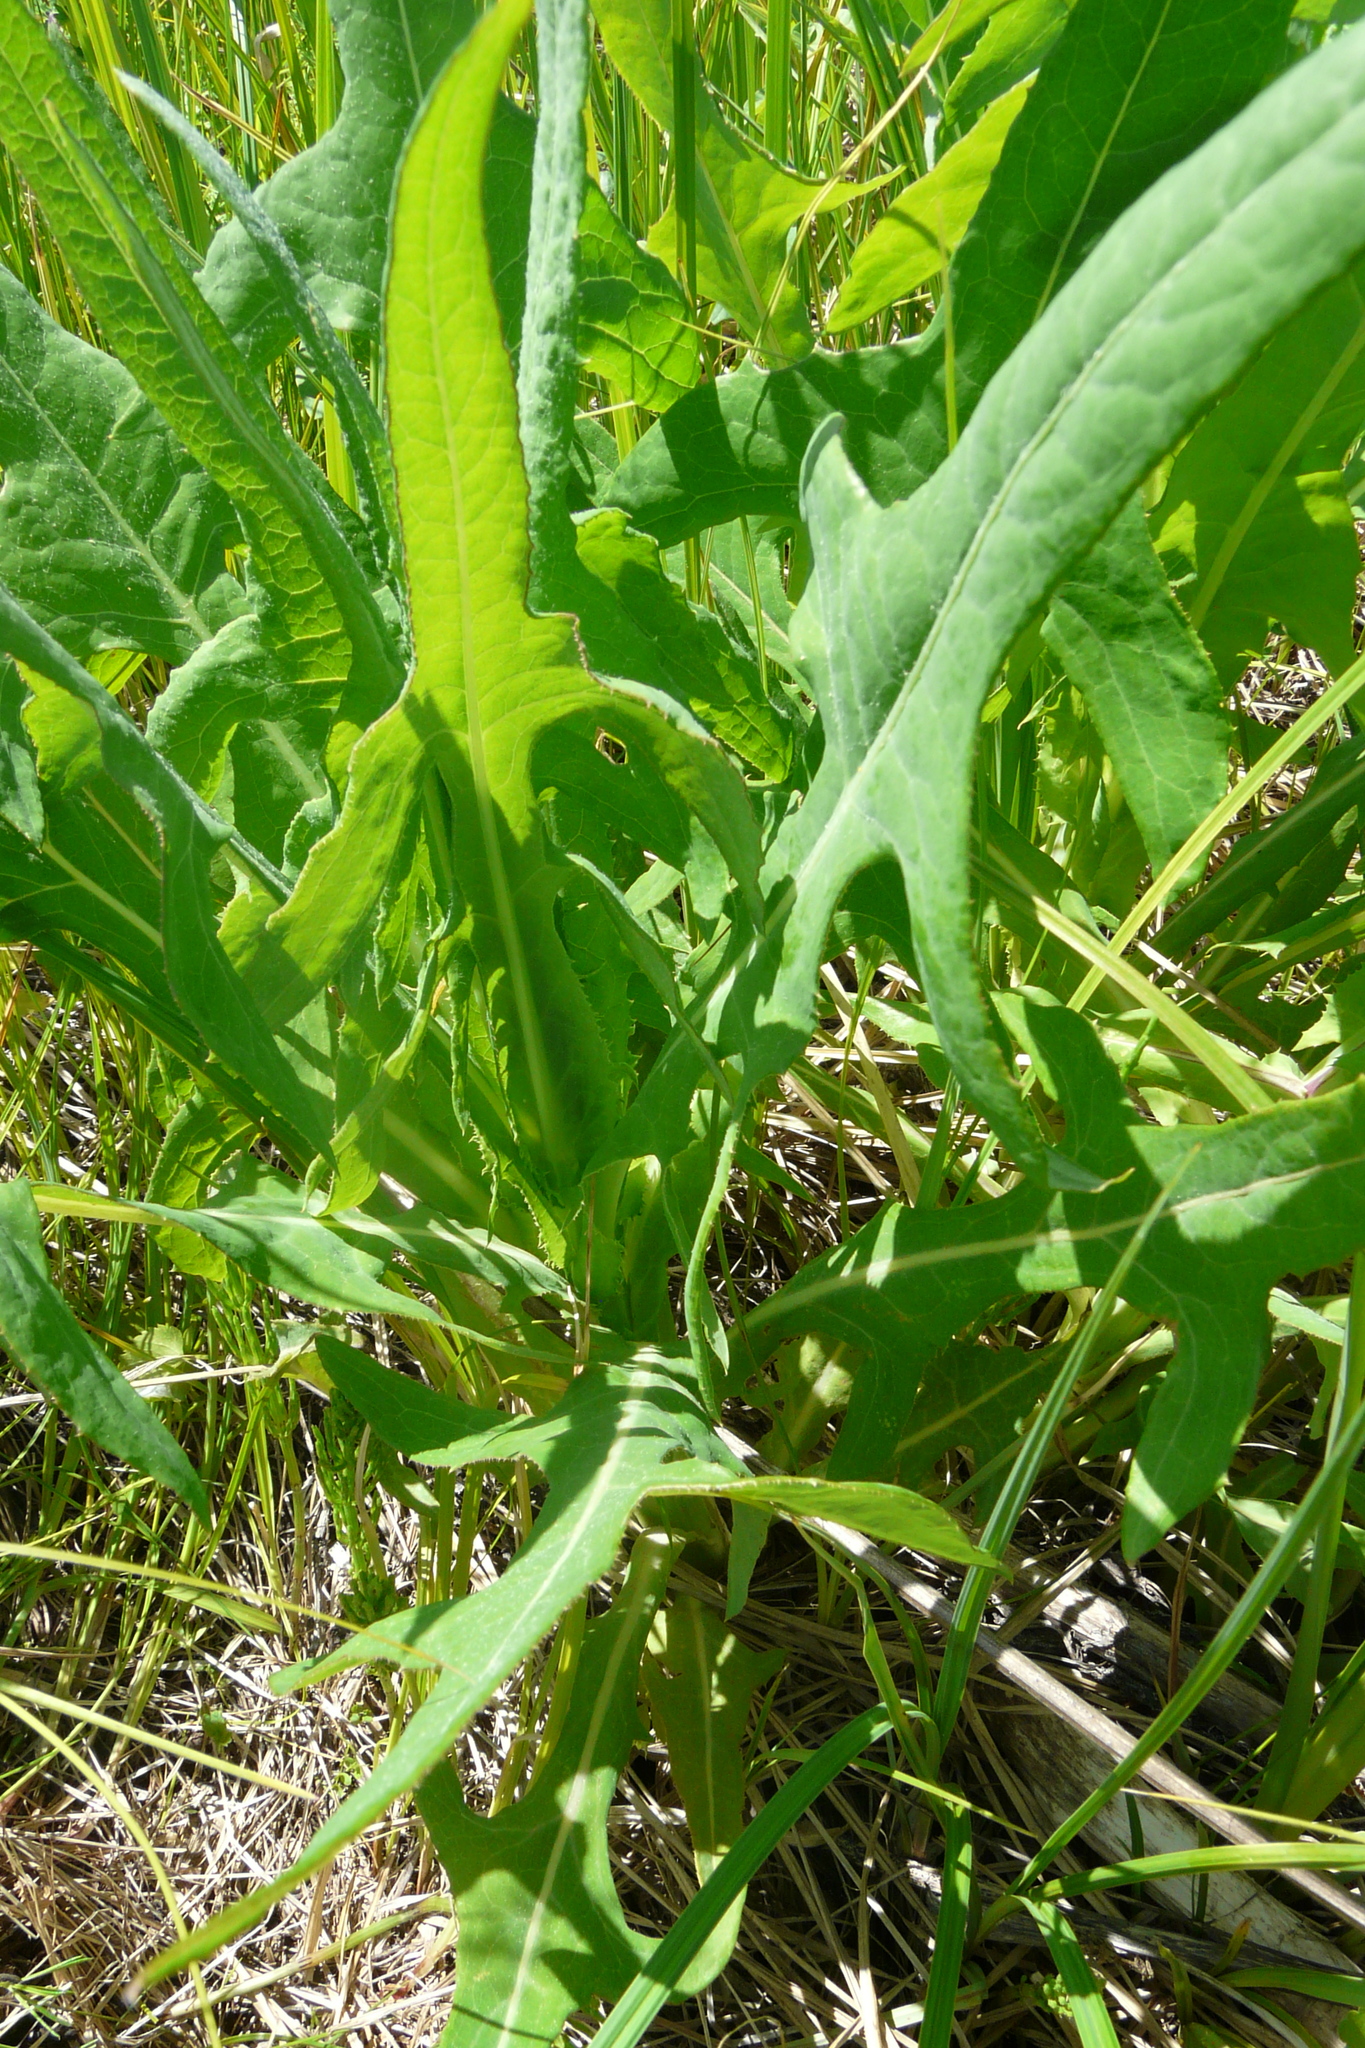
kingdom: Plantae
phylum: Tracheophyta
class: Magnoliopsida
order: Asterales
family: Asteraceae
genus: Sonchus
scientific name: Sonchus palustris
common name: Marsh sow-thistle
